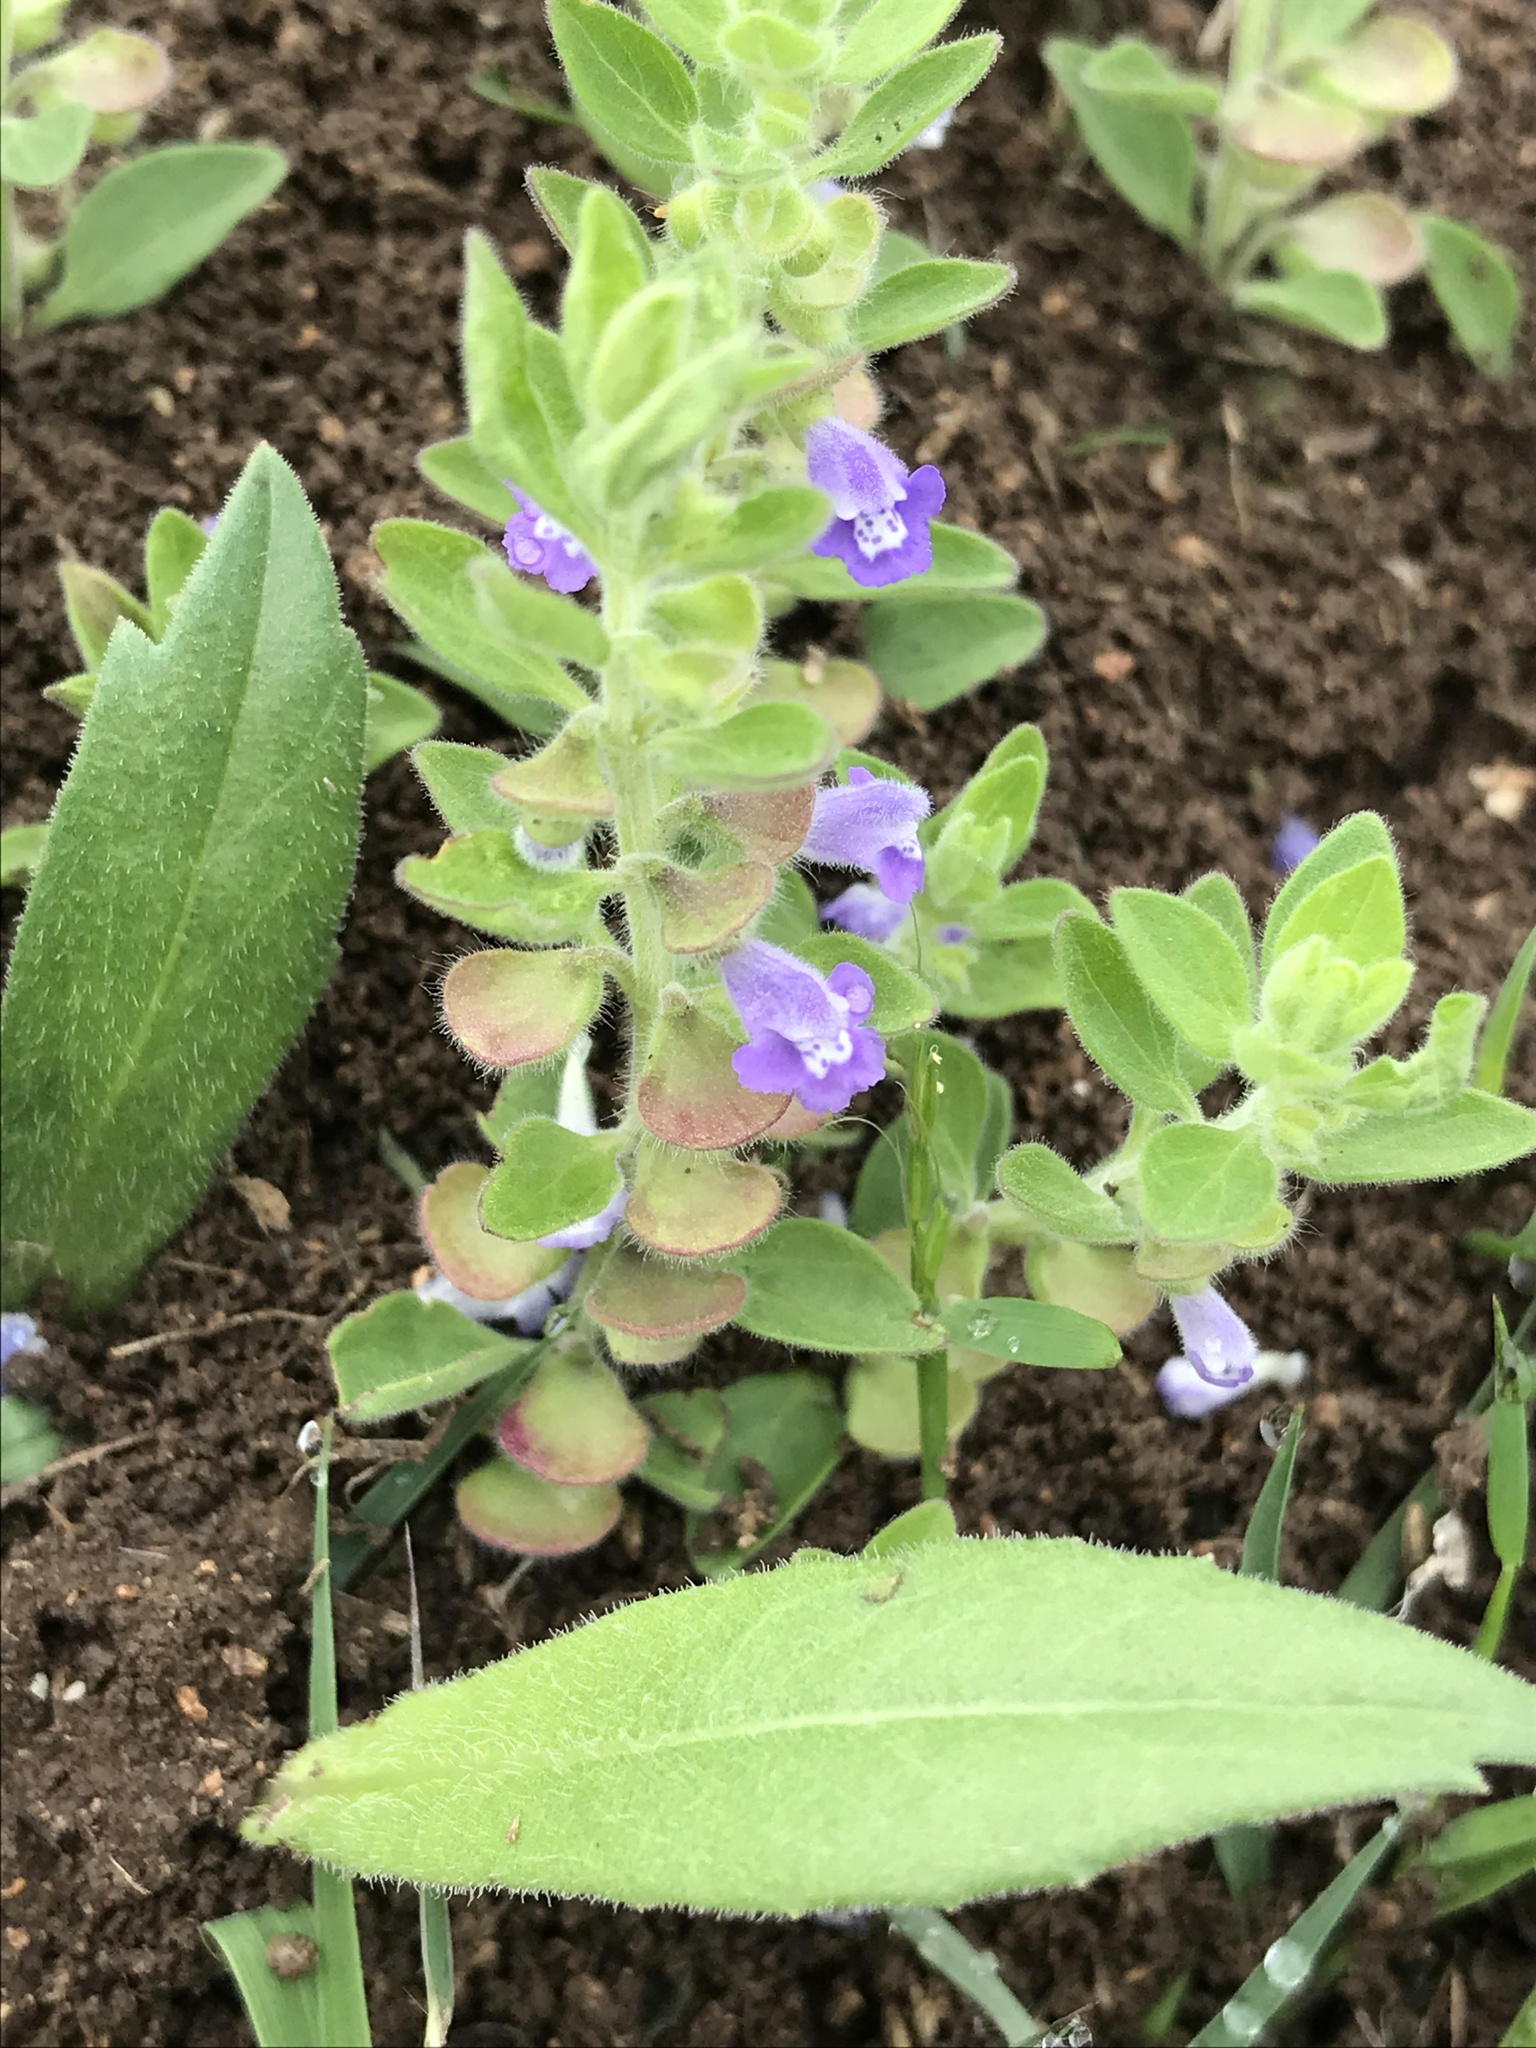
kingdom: Plantae
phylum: Tracheophyta
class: Magnoliopsida
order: Lamiales
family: Lamiaceae
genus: Scutellaria
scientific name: Scutellaria drummondii
